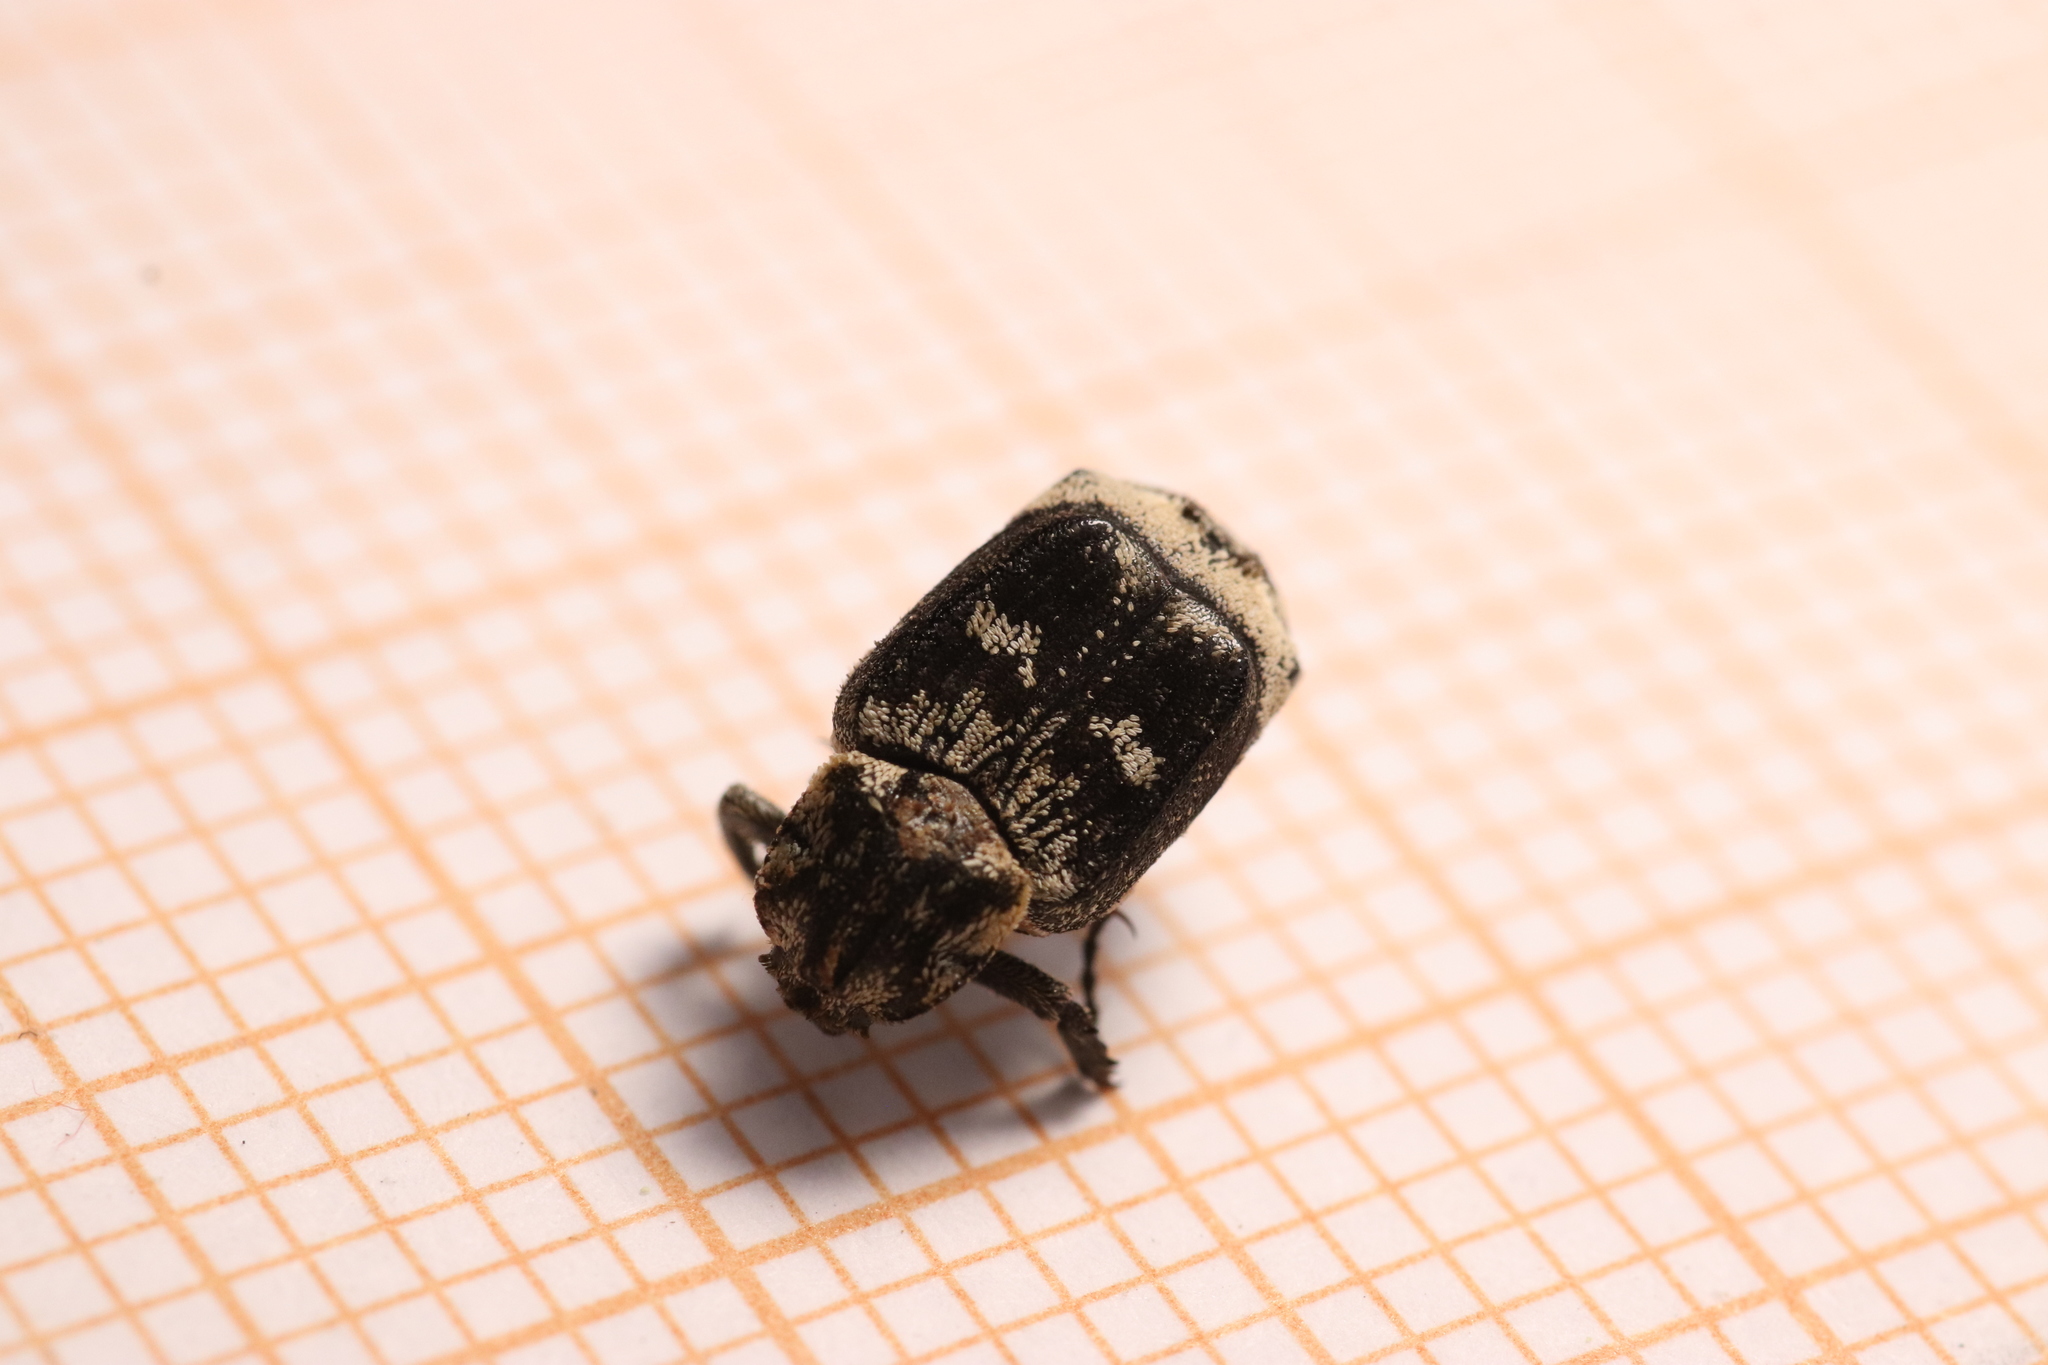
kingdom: Animalia
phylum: Arthropoda
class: Insecta
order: Coleoptera
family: Scarabaeidae
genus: Valgus
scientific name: Valgus hemipterus
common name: Bug flower chafer
